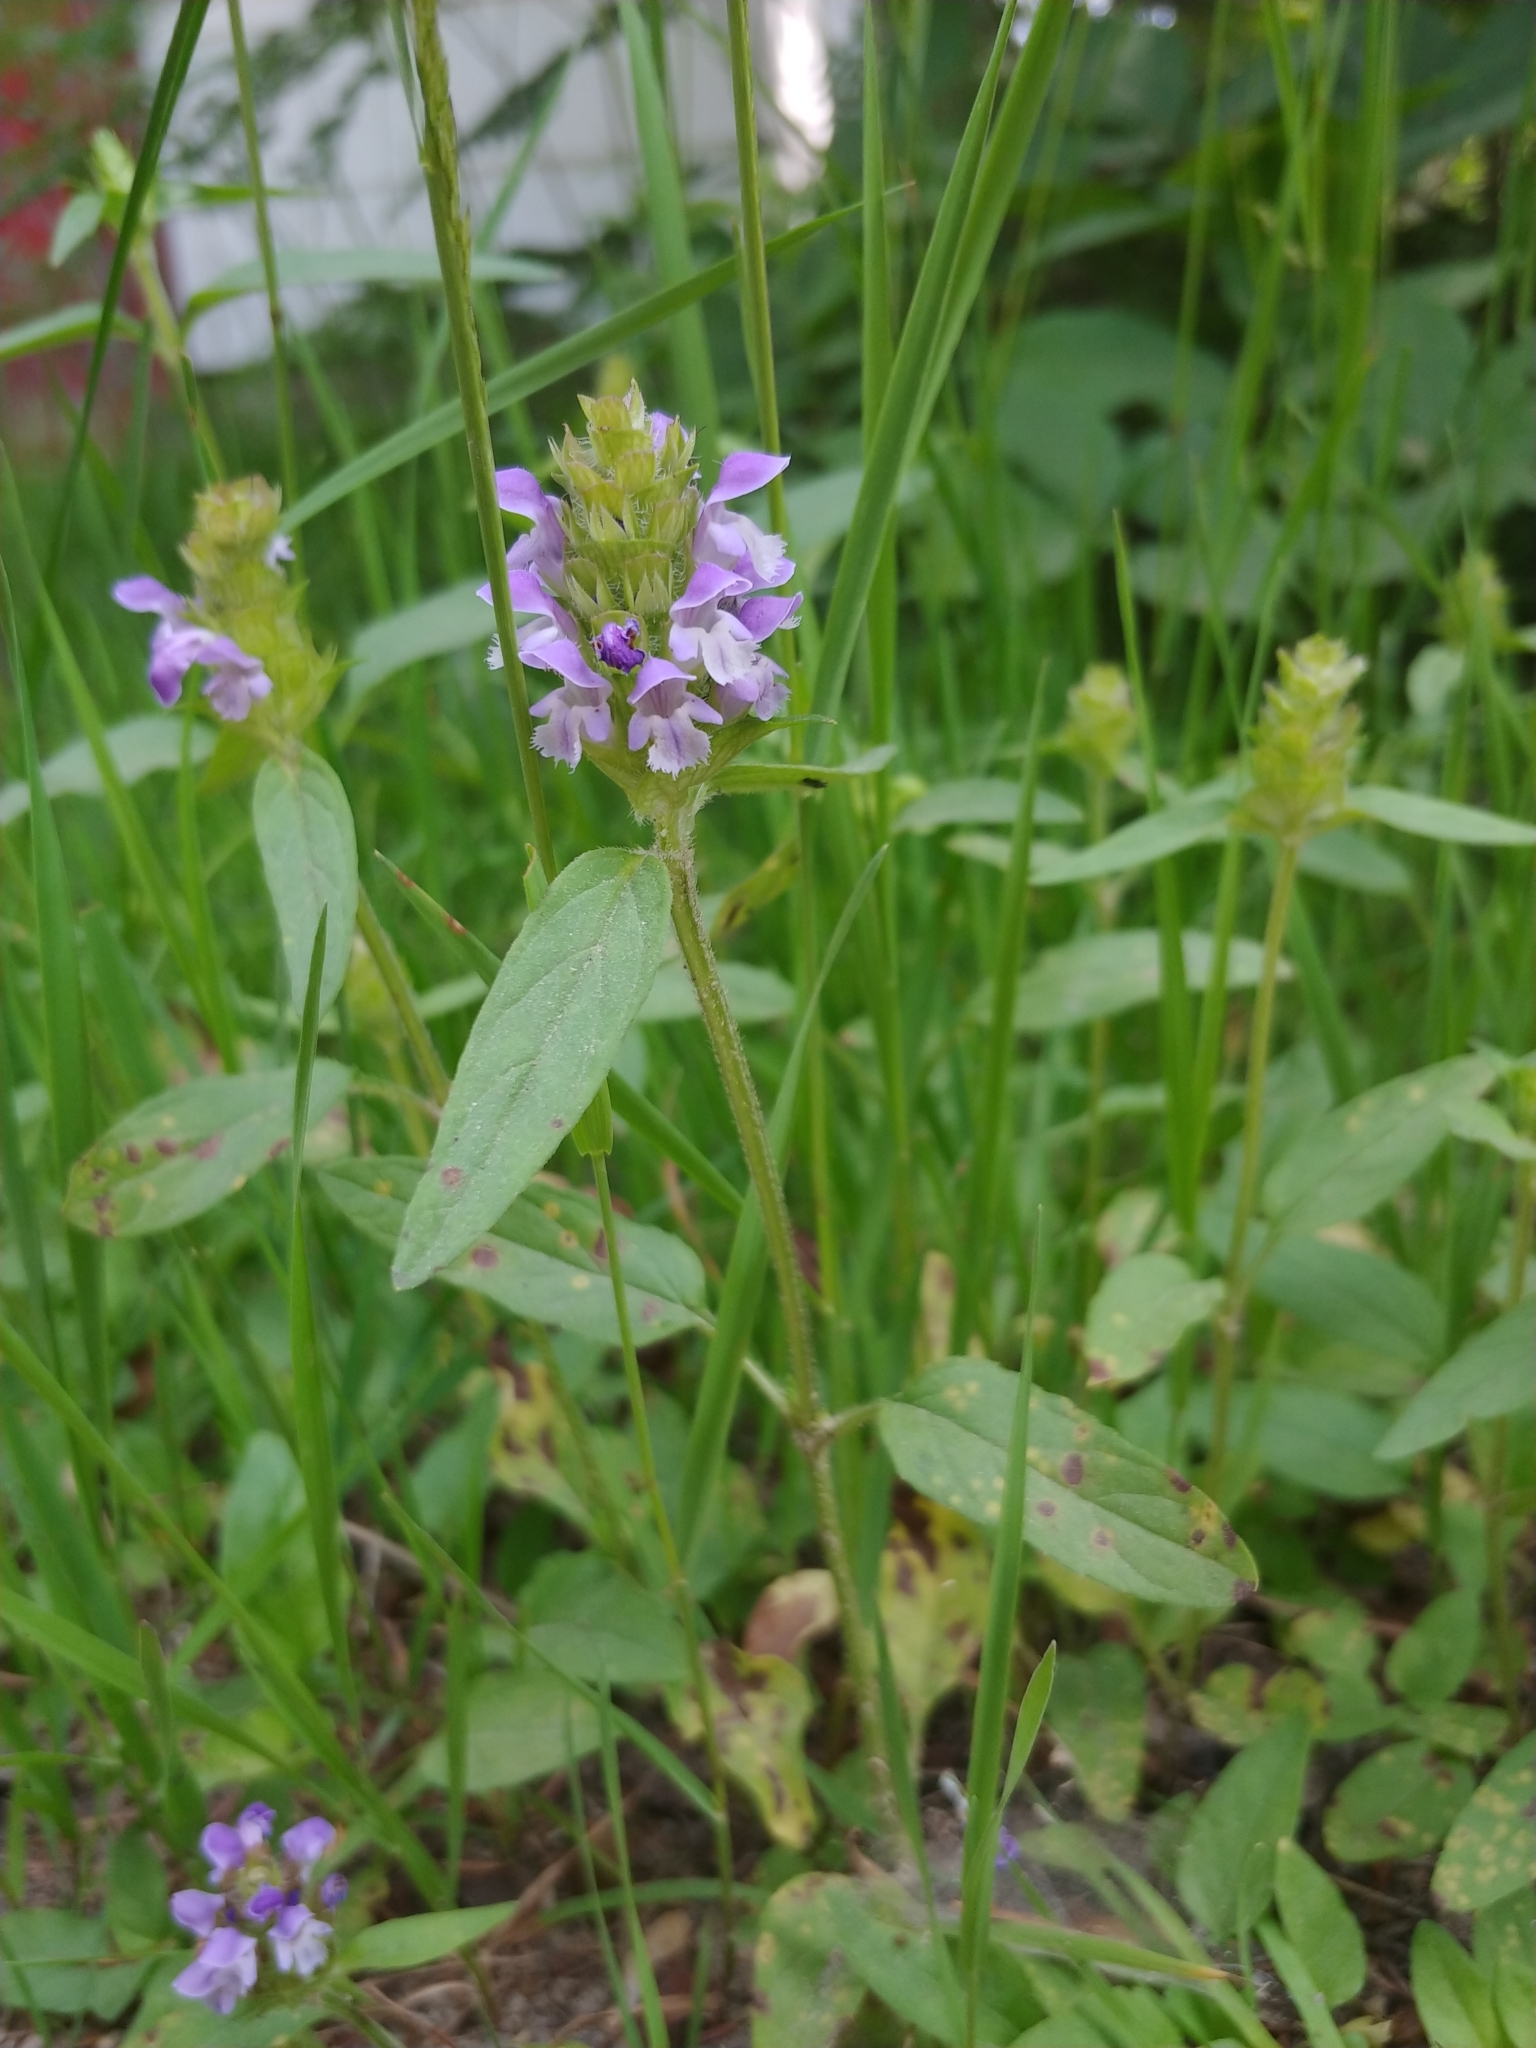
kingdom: Plantae
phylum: Tracheophyta
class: Magnoliopsida
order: Lamiales
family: Lamiaceae
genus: Prunella
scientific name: Prunella vulgaris
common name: Heal-all
